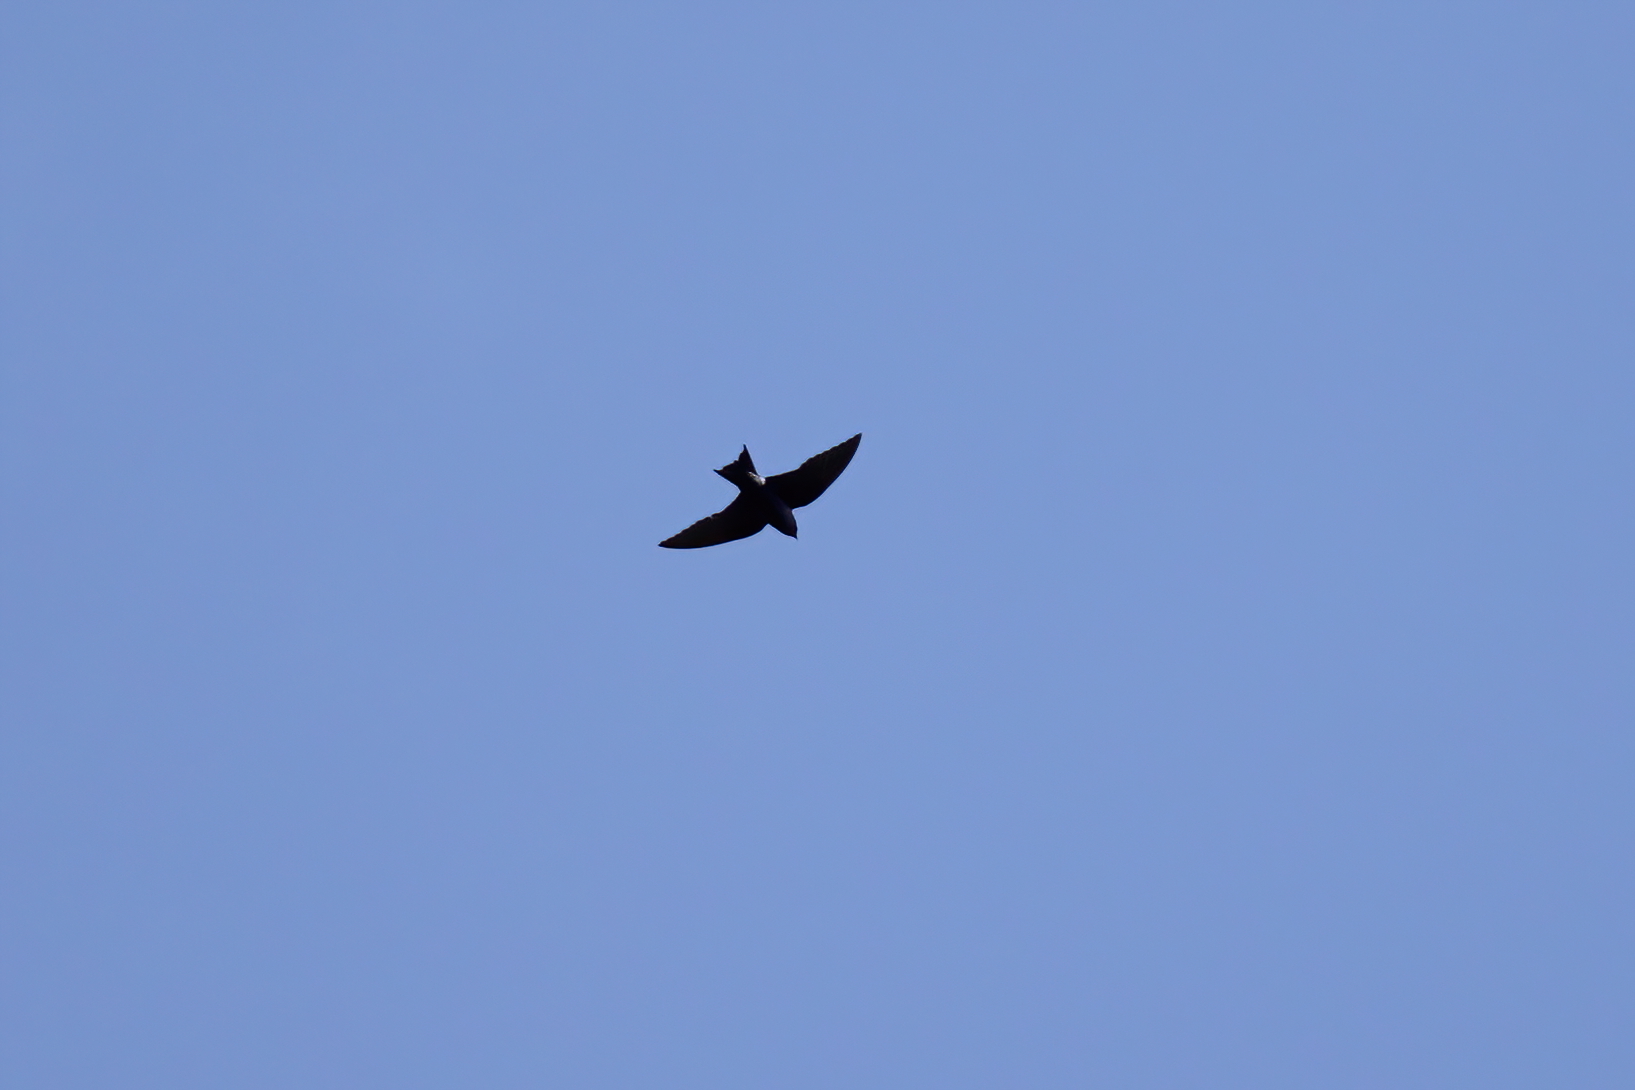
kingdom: Animalia
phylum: Chordata
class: Aves
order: Passeriformes
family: Hirundinidae
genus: Progne
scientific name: Progne subis
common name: Purple martin
